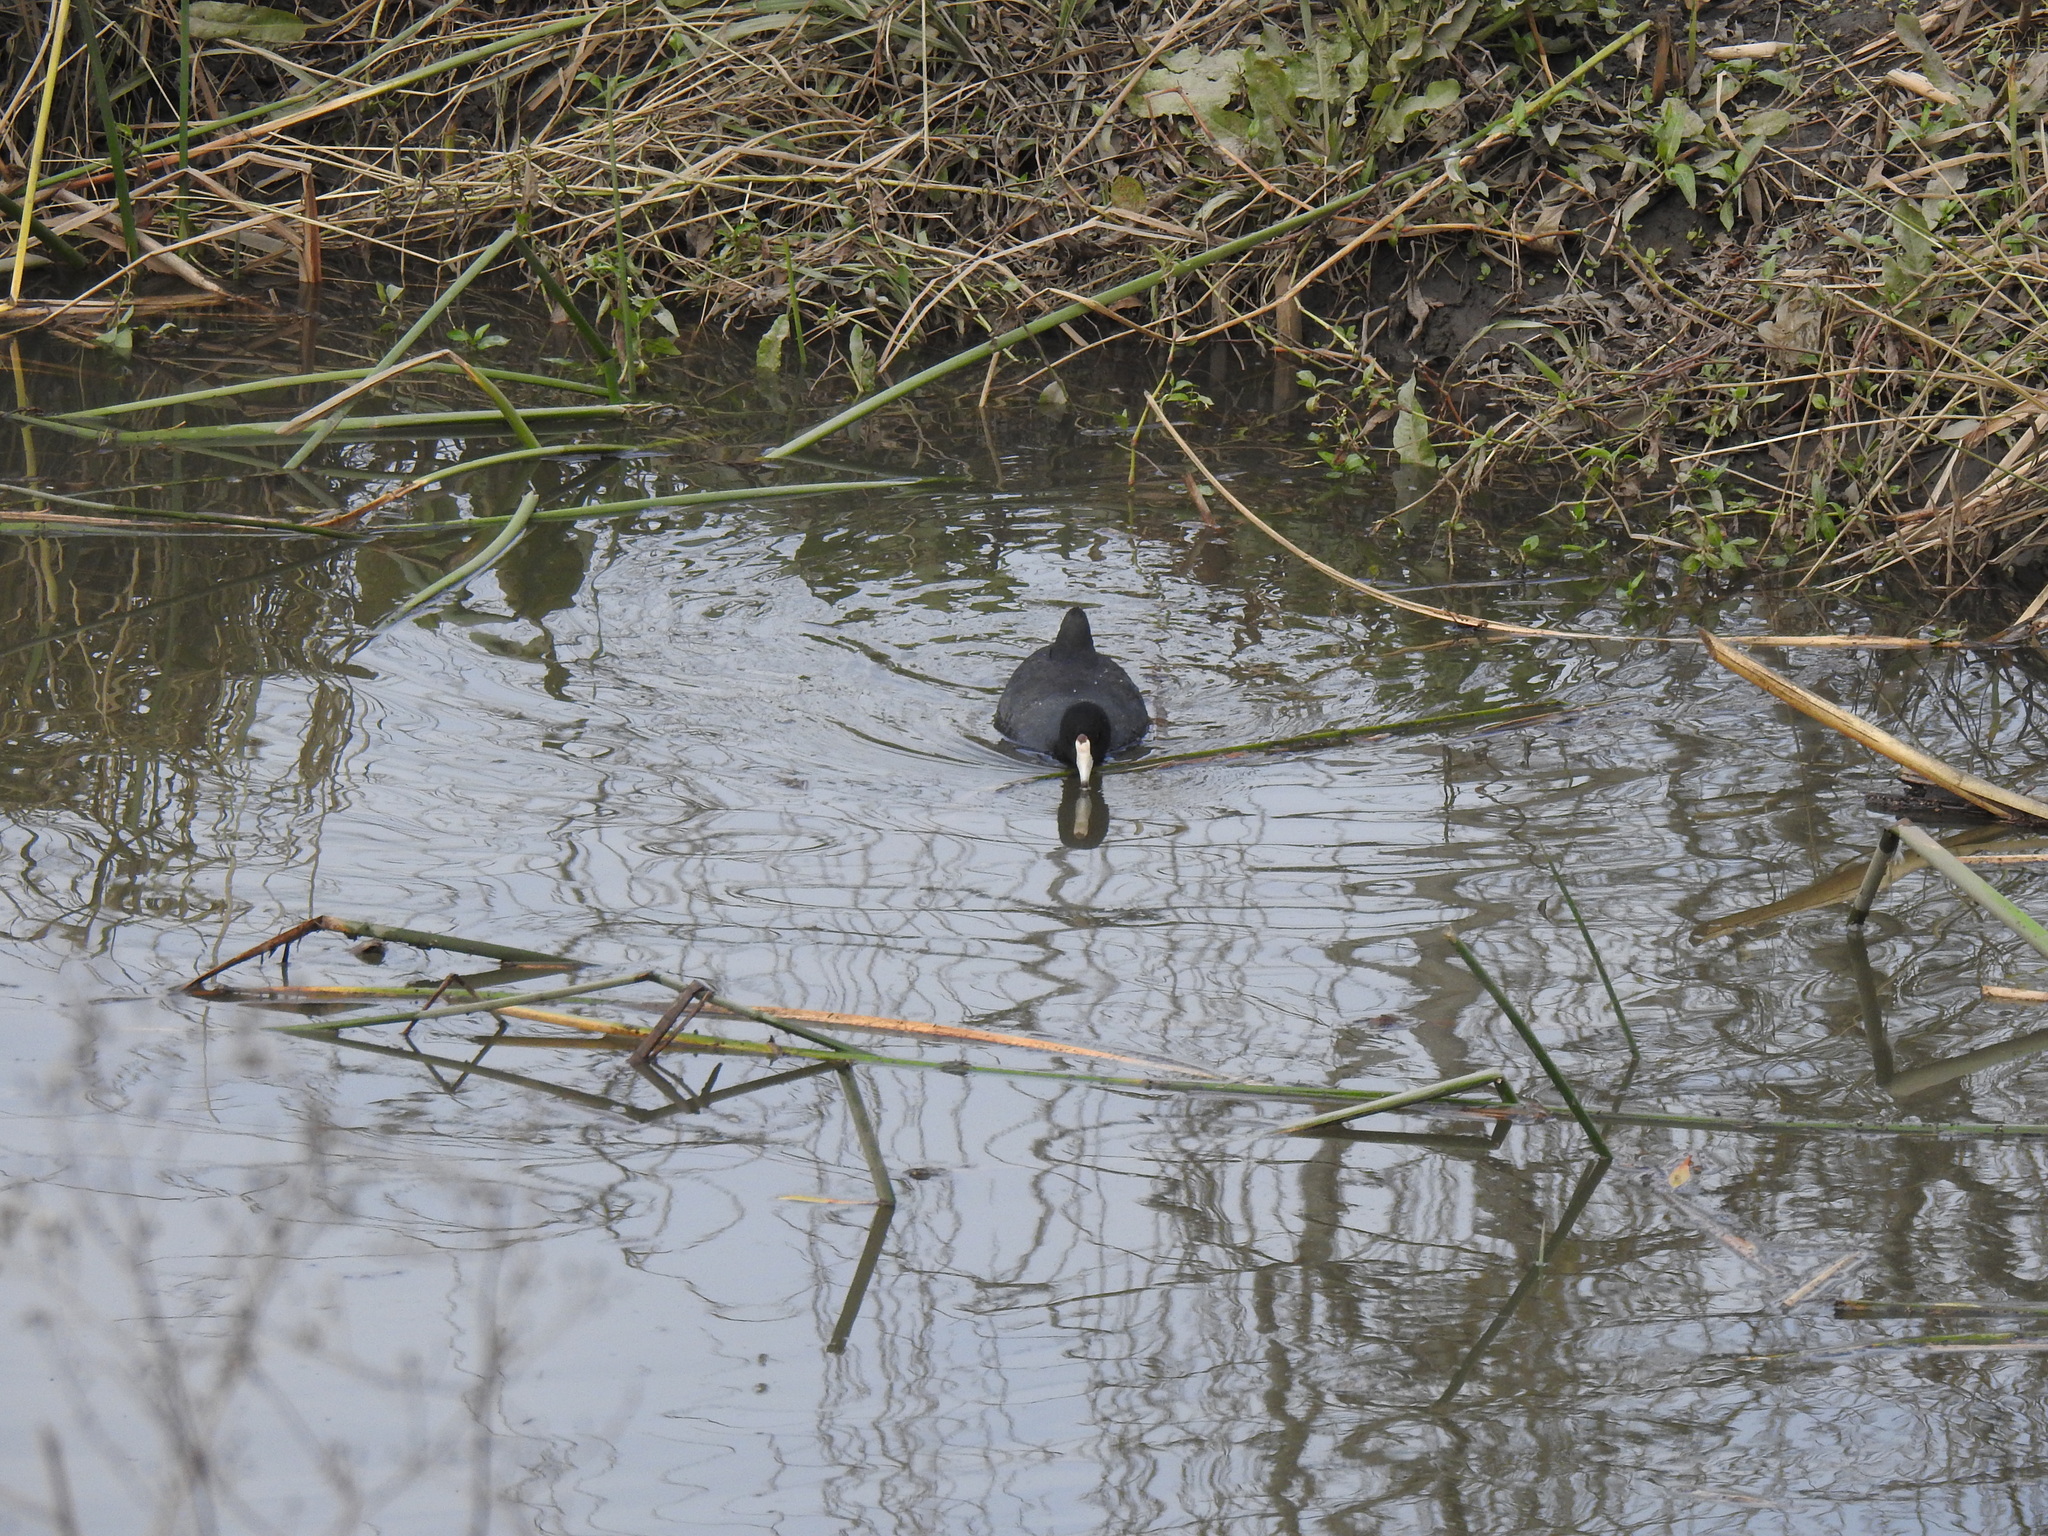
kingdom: Animalia
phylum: Chordata
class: Aves
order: Gruiformes
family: Rallidae
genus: Fulica
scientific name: Fulica americana
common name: American coot
